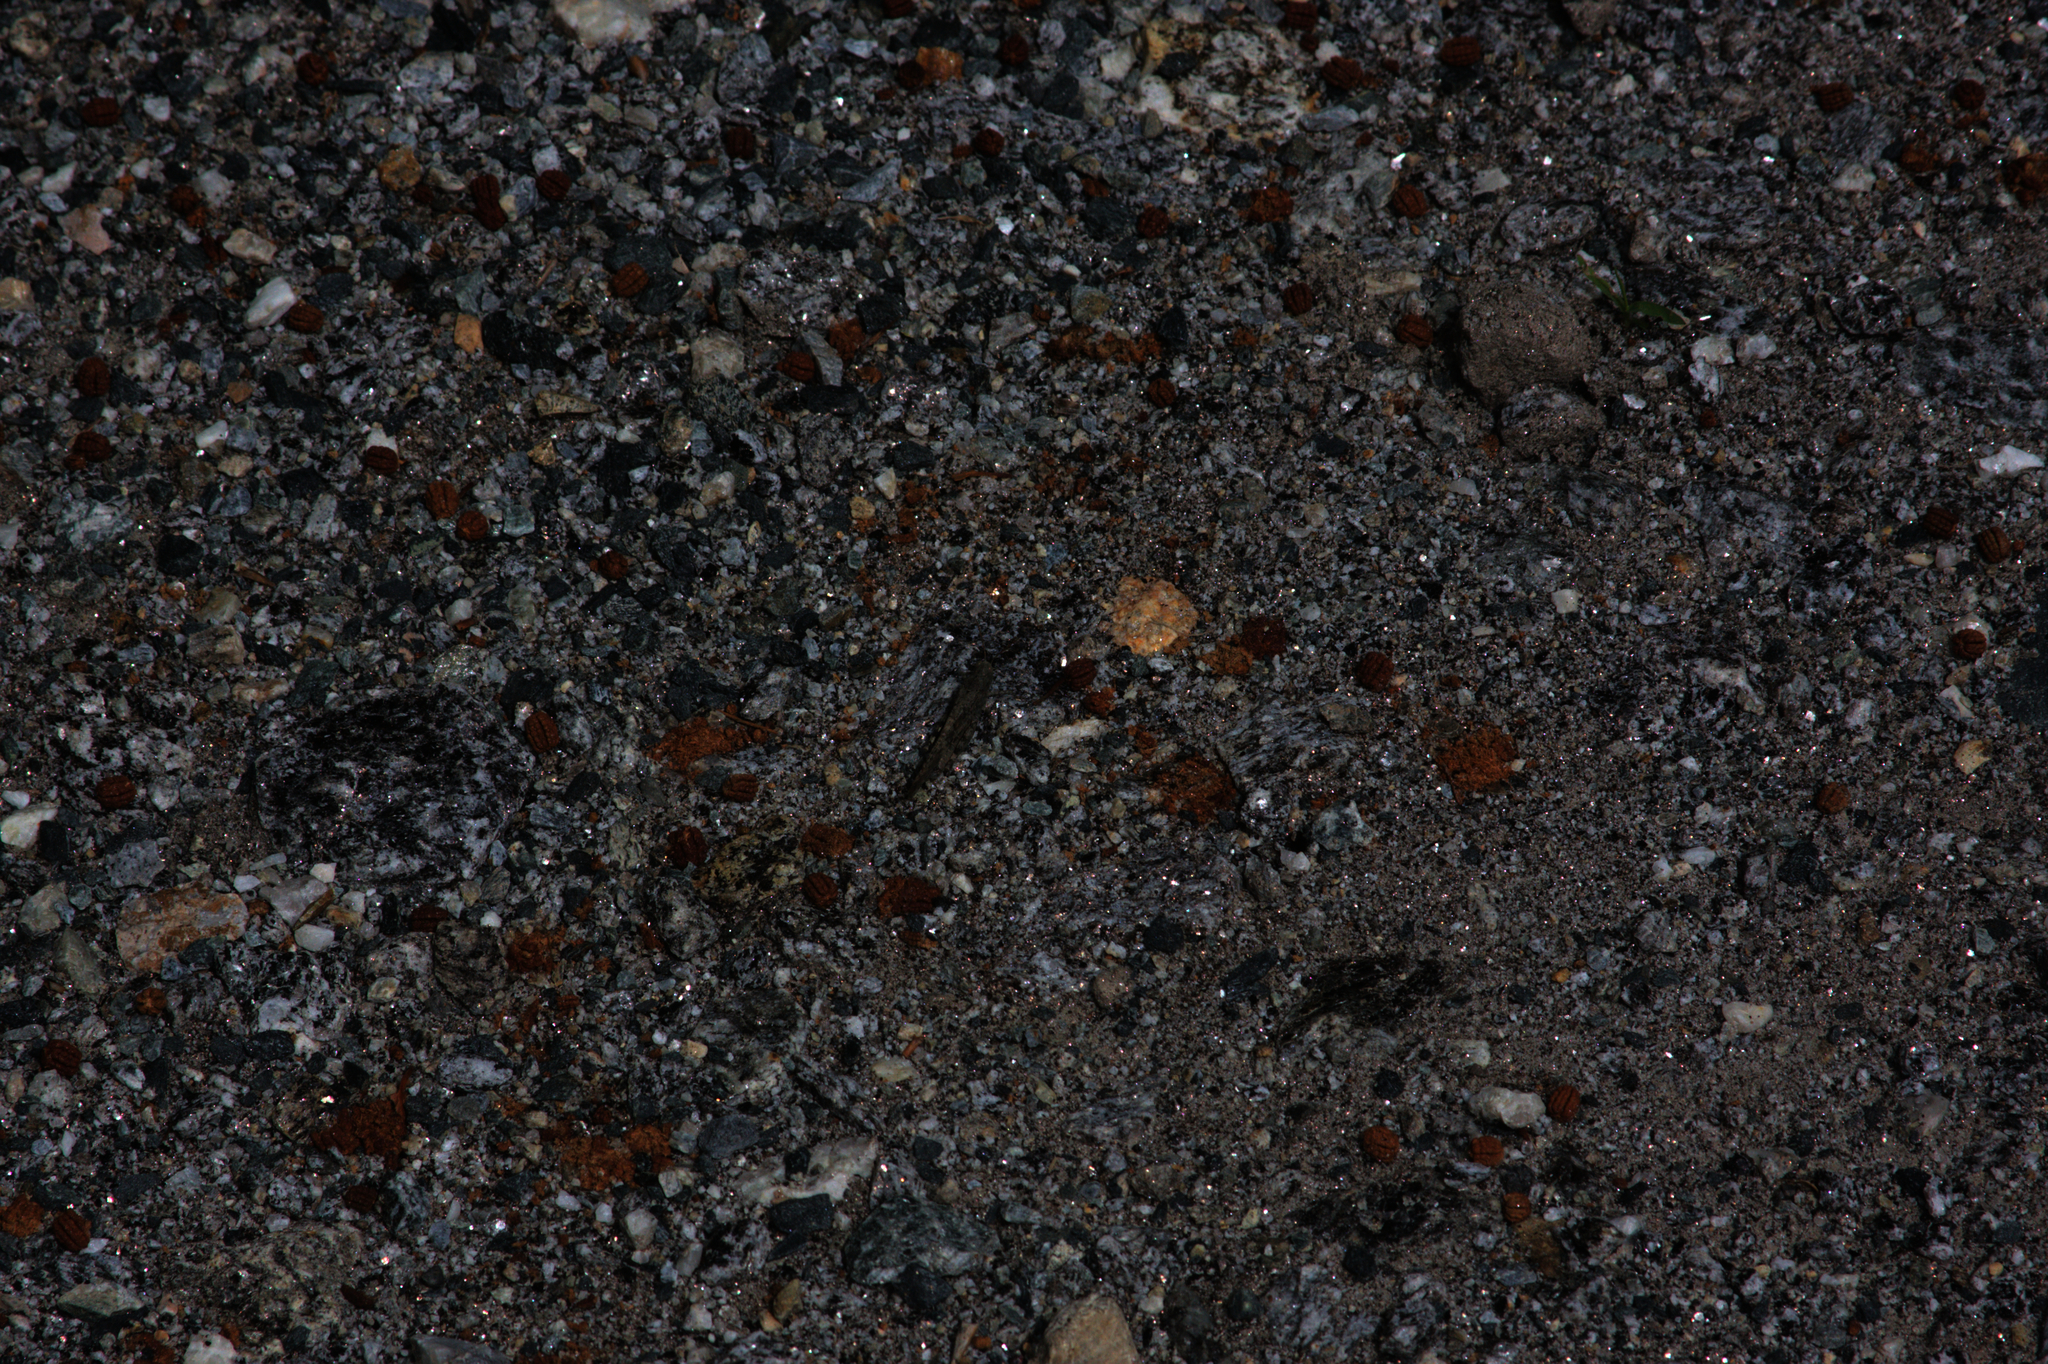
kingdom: Animalia
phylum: Arthropoda
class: Insecta
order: Orthoptera
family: Acrididae
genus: Dissosteira
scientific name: Dissosteira carolina
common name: Carolina grasshopper
